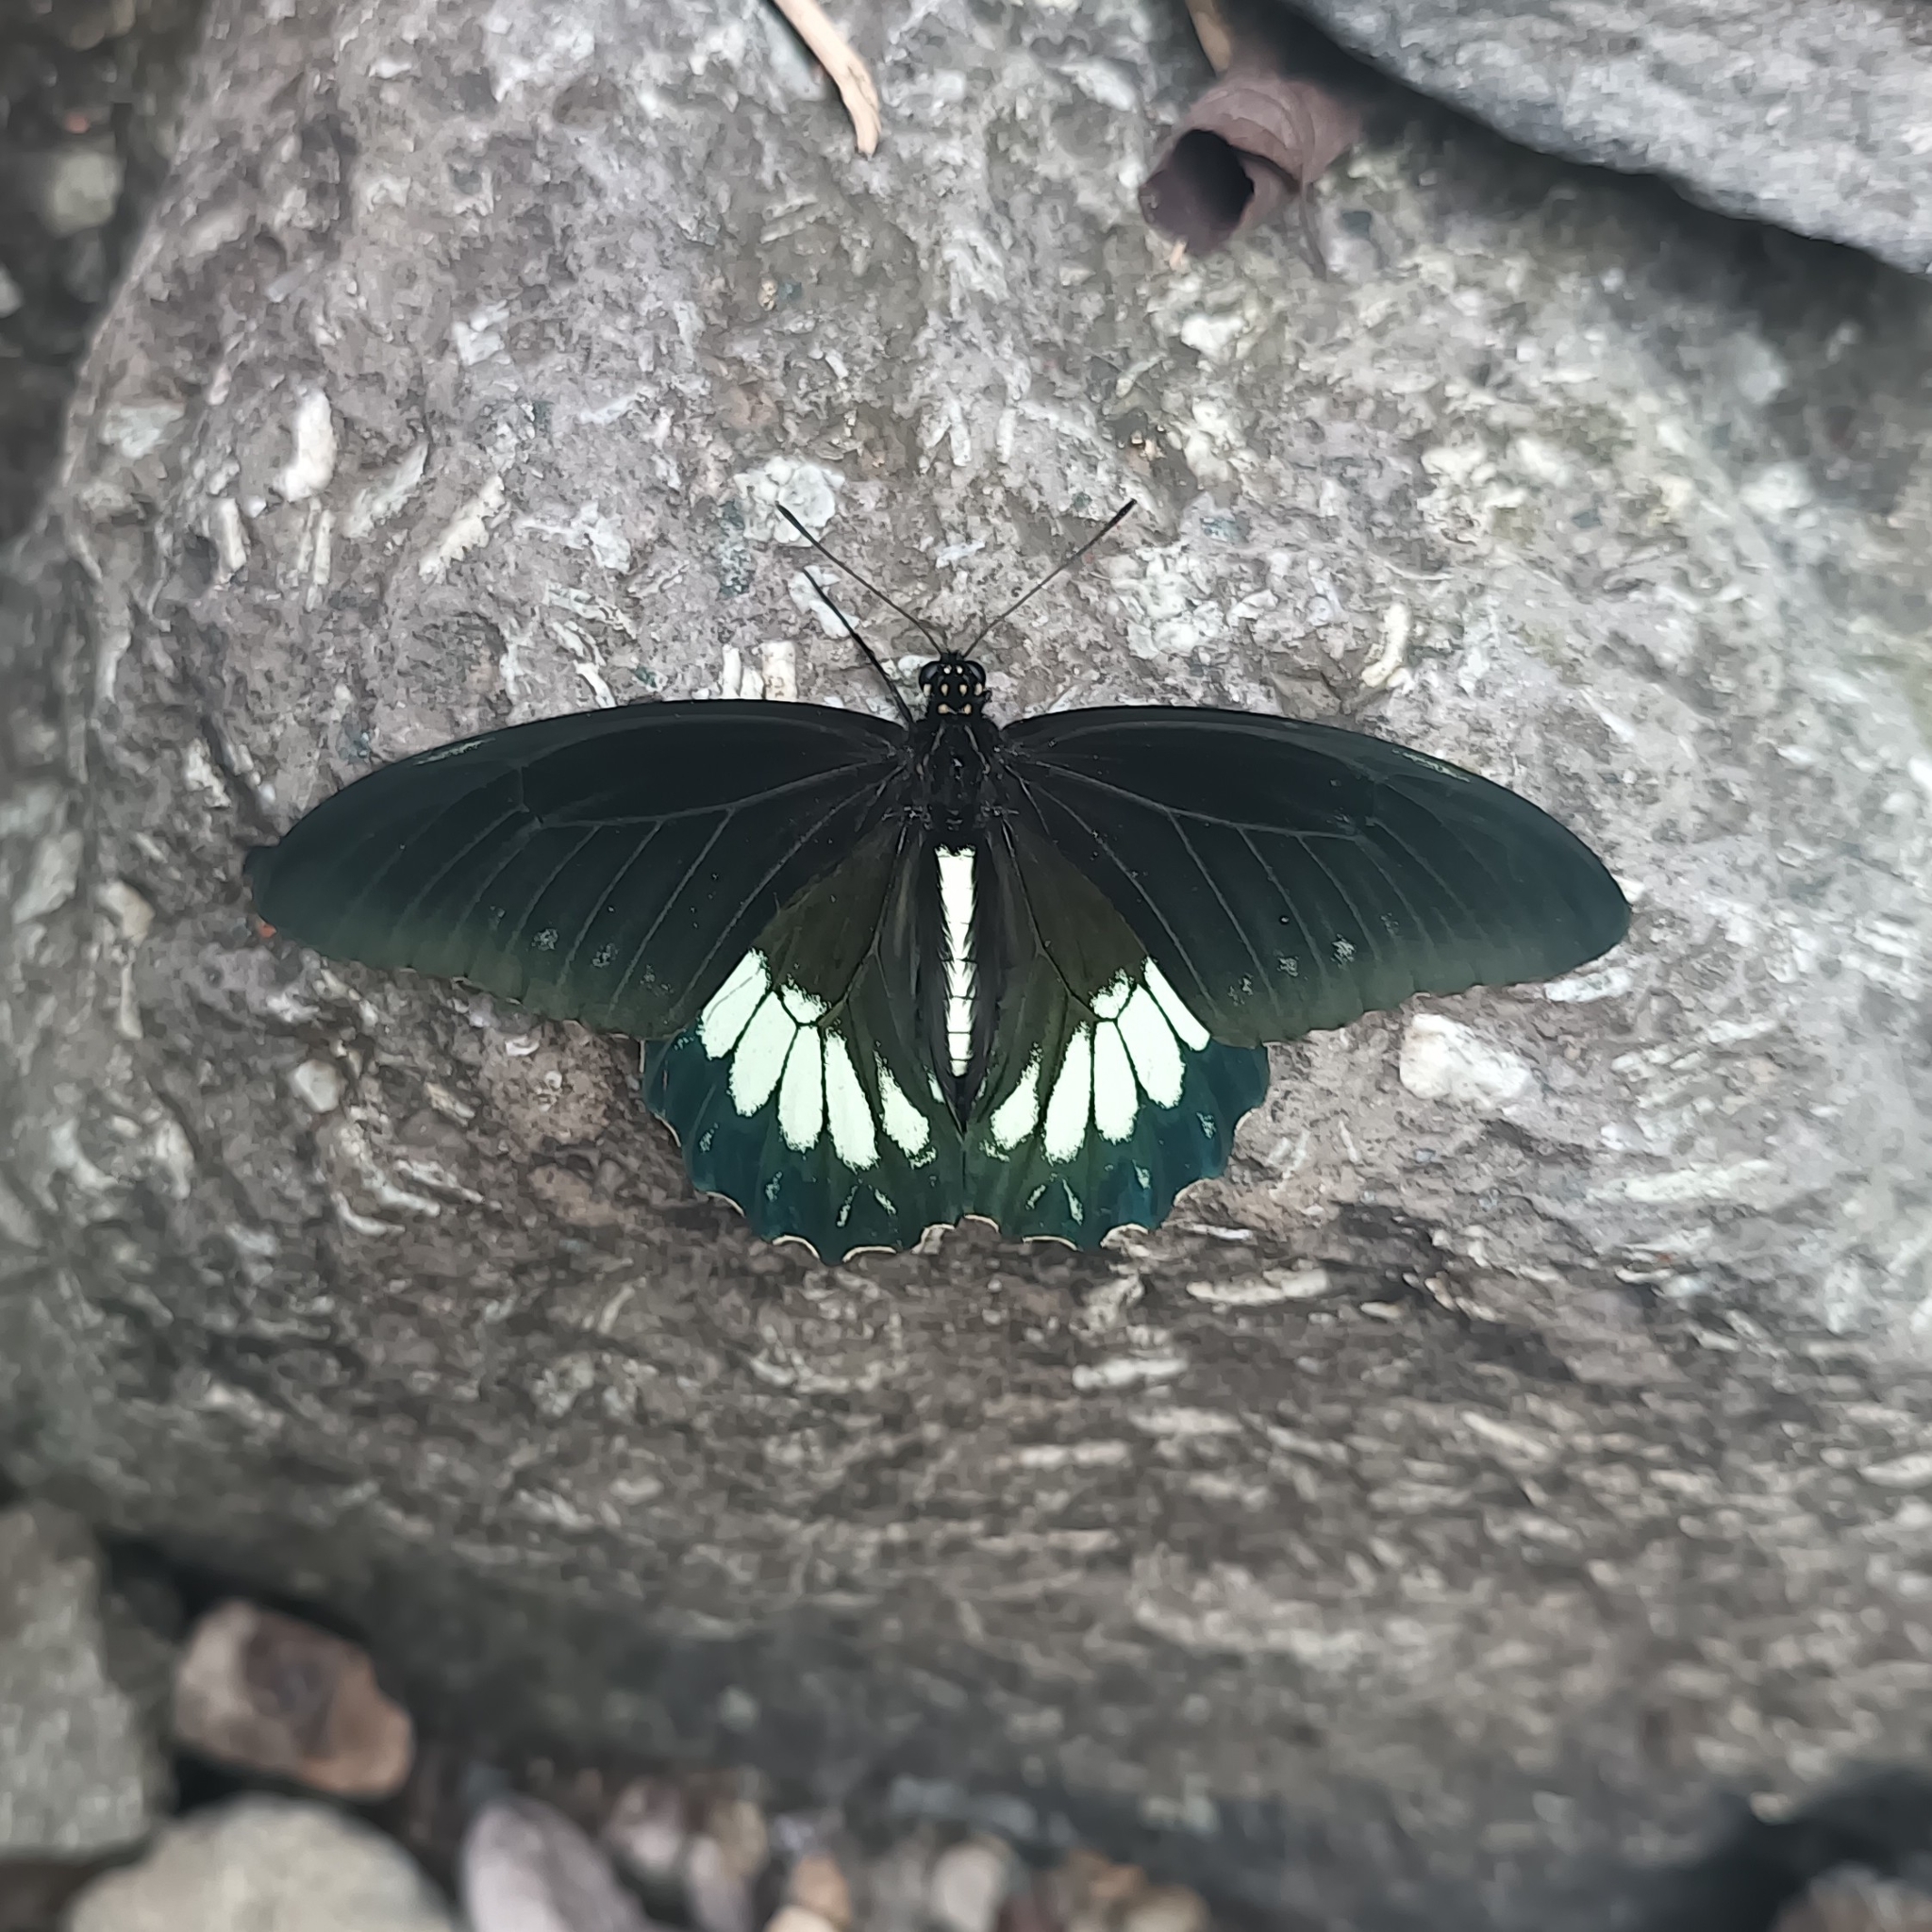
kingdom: Animalia
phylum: Arthropoda
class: Insecta
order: Lepidoptera
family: Papilionidae
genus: Battus
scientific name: Battus laodamas
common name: Green-patch swallowtail
